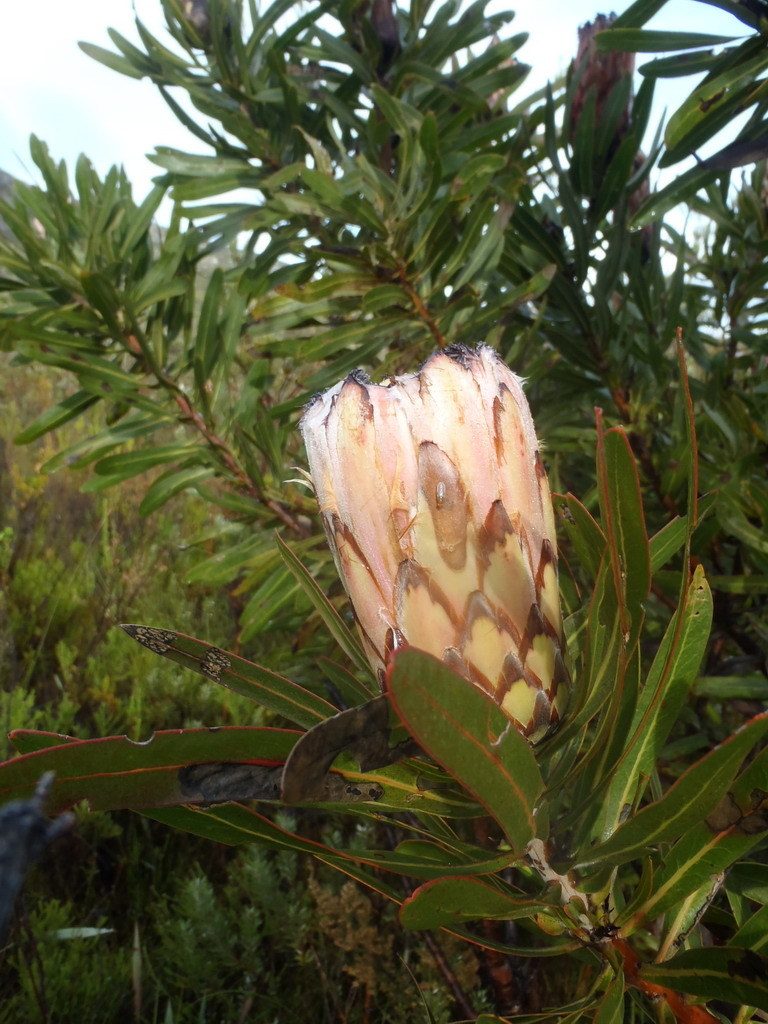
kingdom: Plantae
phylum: Tracheophyta
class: Magnoliopsida
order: Proteales
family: Proteaceae
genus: Protea
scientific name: Protea neriifolia
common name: Blue sugarbush
